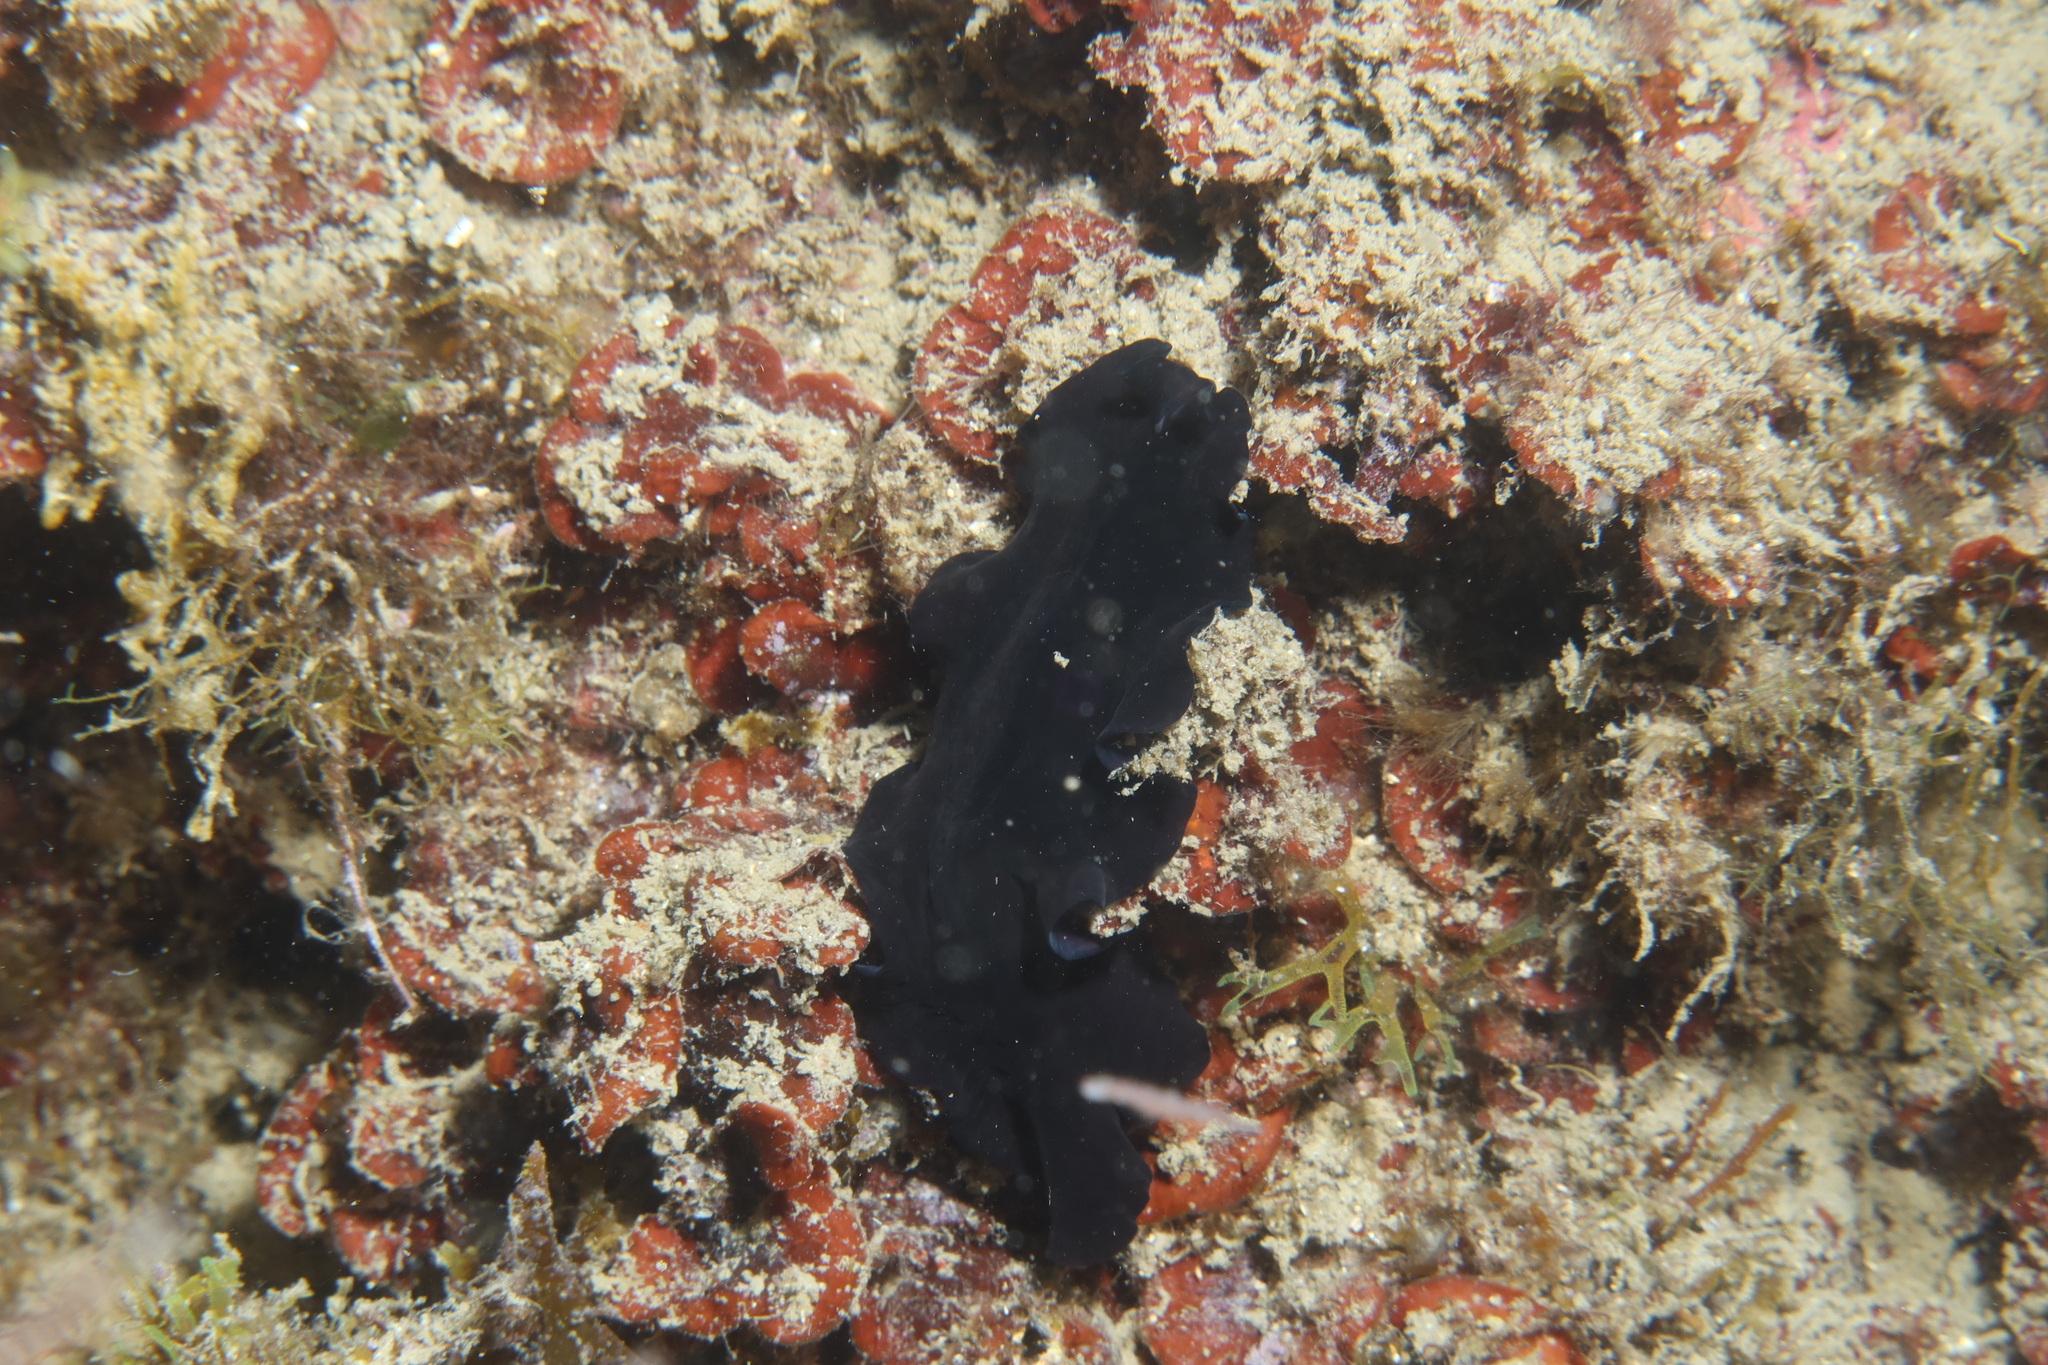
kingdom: Animalia
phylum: Platyhelminthes
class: Turbellaria
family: Pseudocerotidae
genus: Pseudoceros
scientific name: Pseudoceros velutinus
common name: Black flatworm
